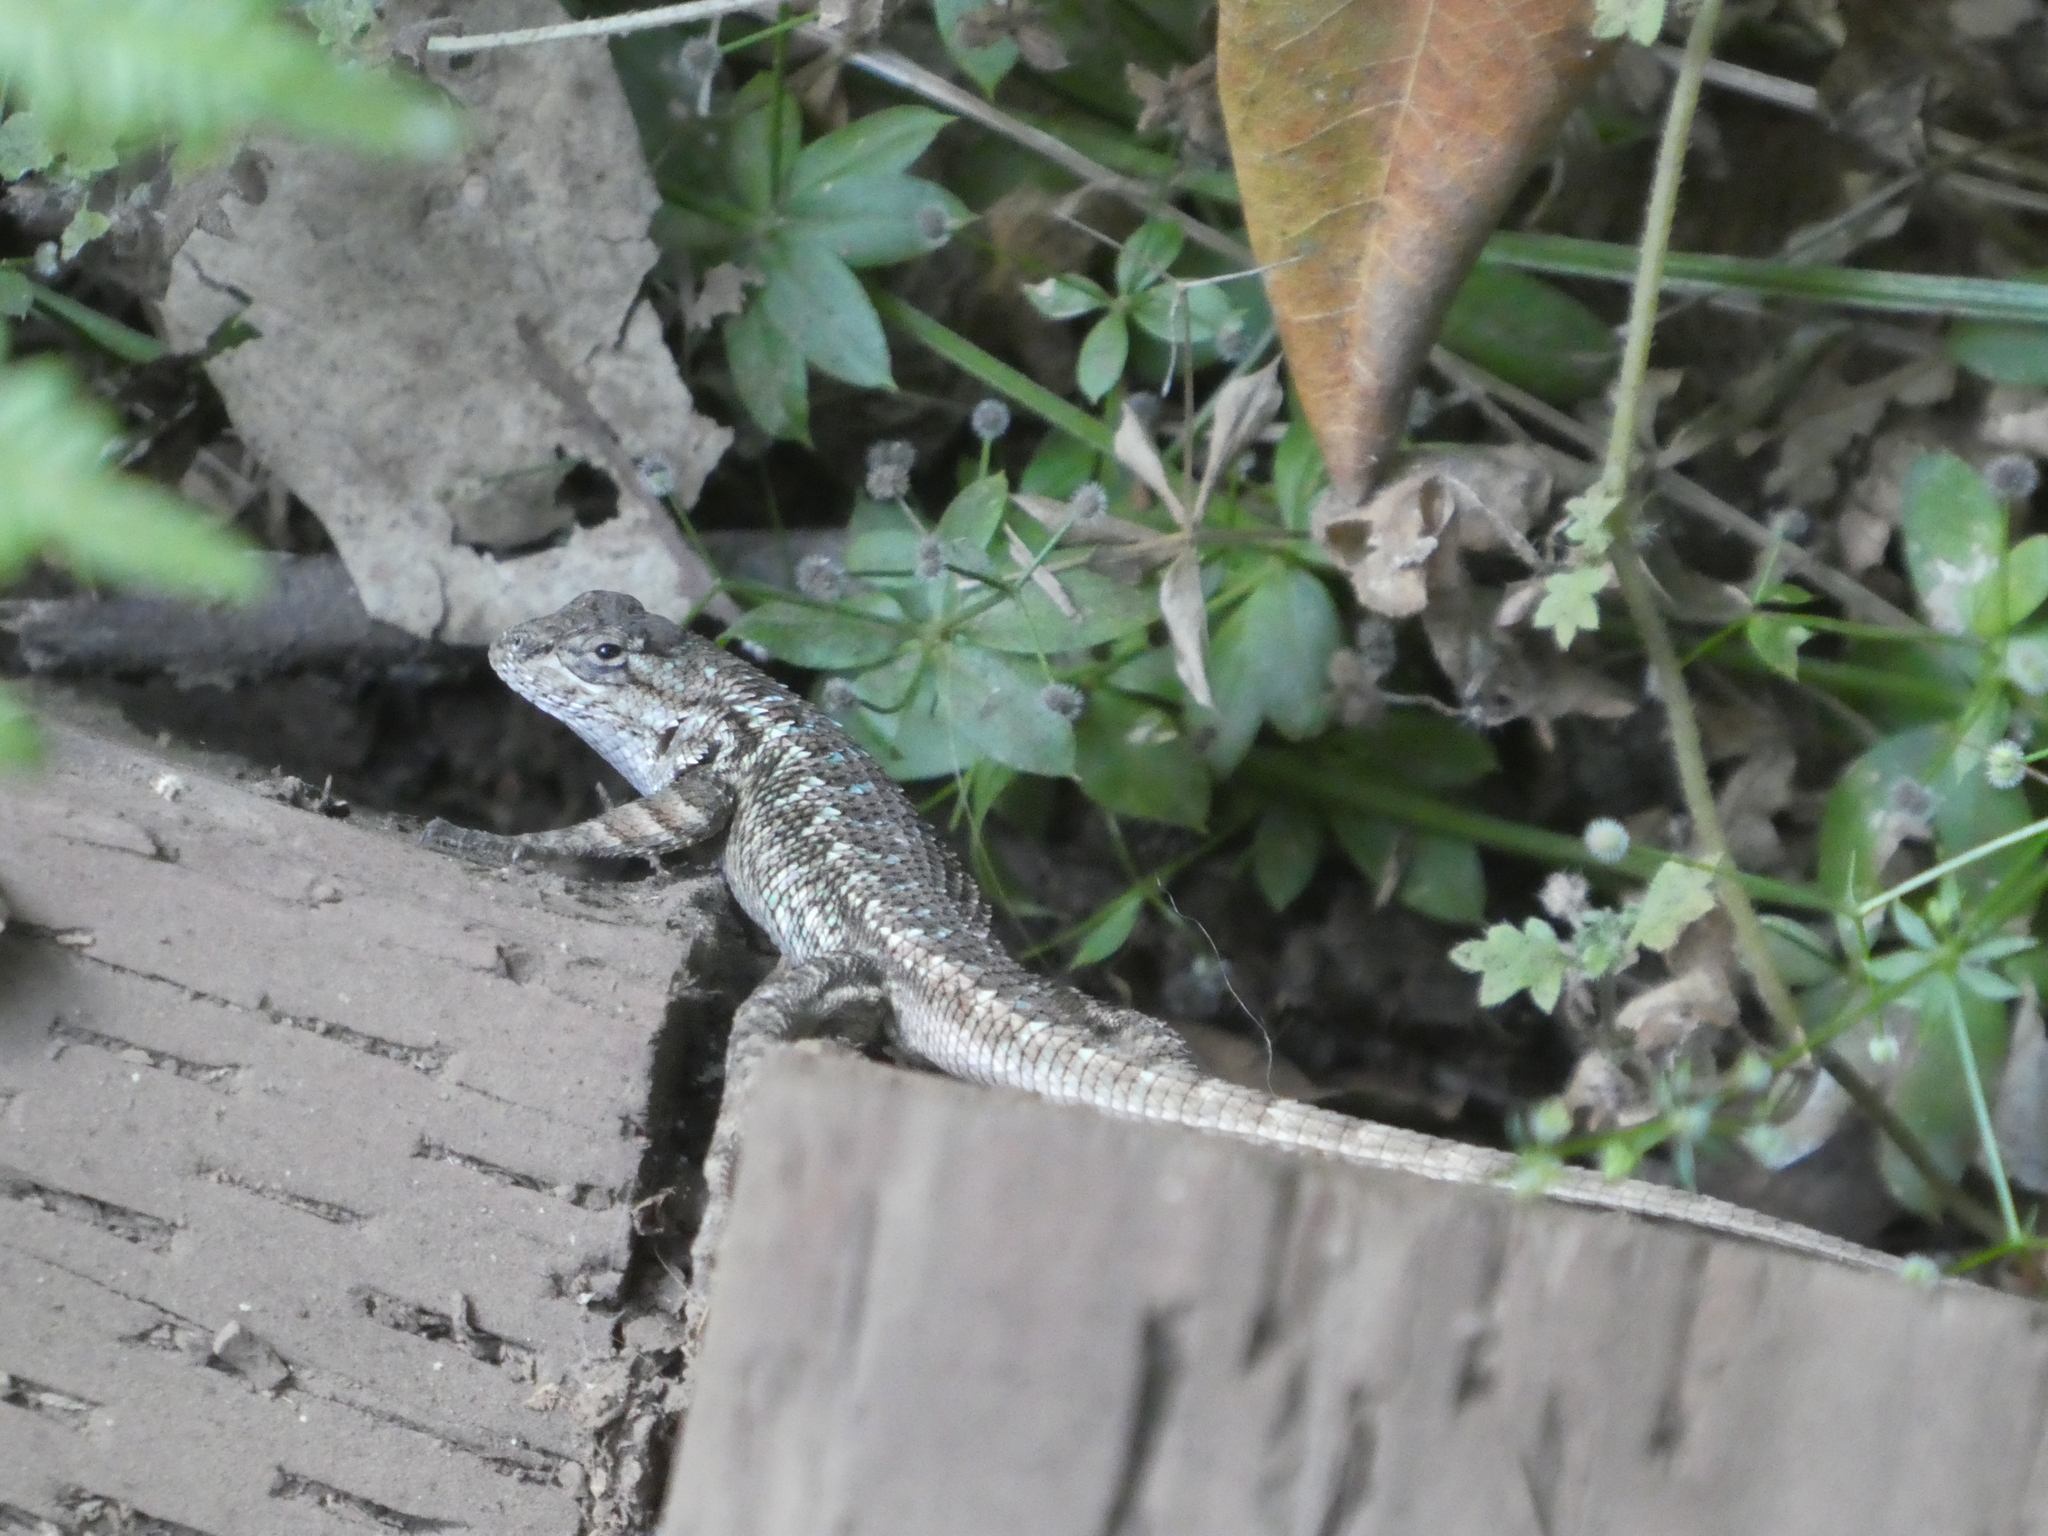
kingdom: Animalia
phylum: Chordata
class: Squamata
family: Phrynosomatidae
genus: Sceloporus
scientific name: Sceloporus occidentalis
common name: Western fence lizard
